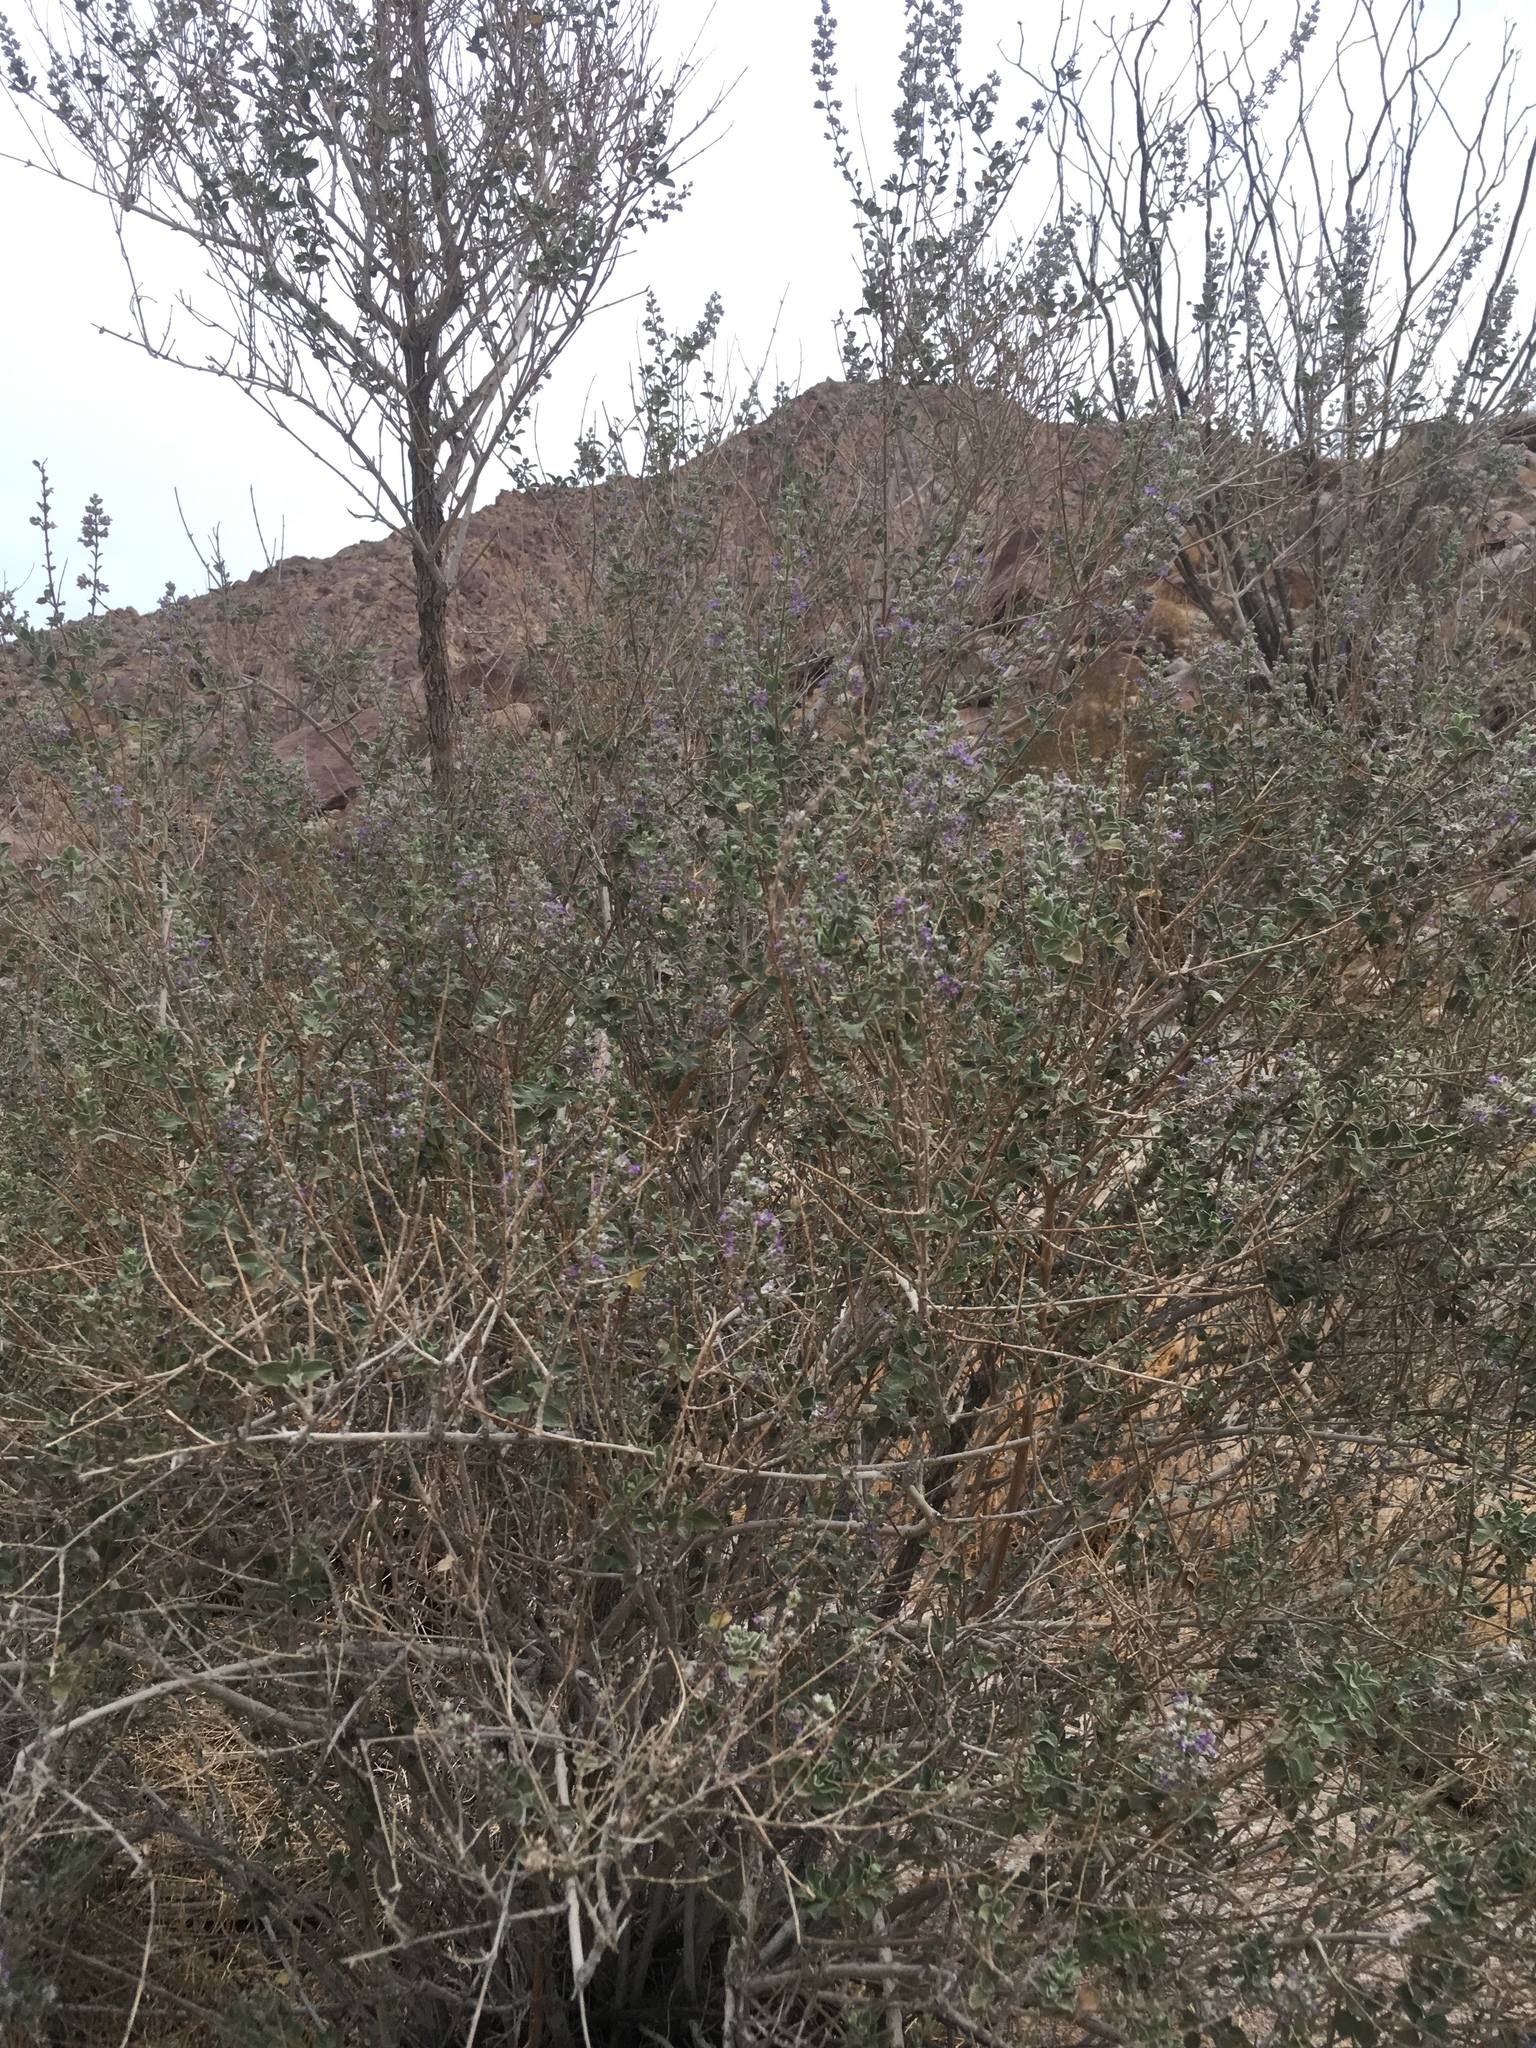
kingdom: Plantae
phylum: Tracheophyta
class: Magnoliopsida
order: Lamiales
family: Lamiaceae
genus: Condea
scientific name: Condea emoryi
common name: Chia
